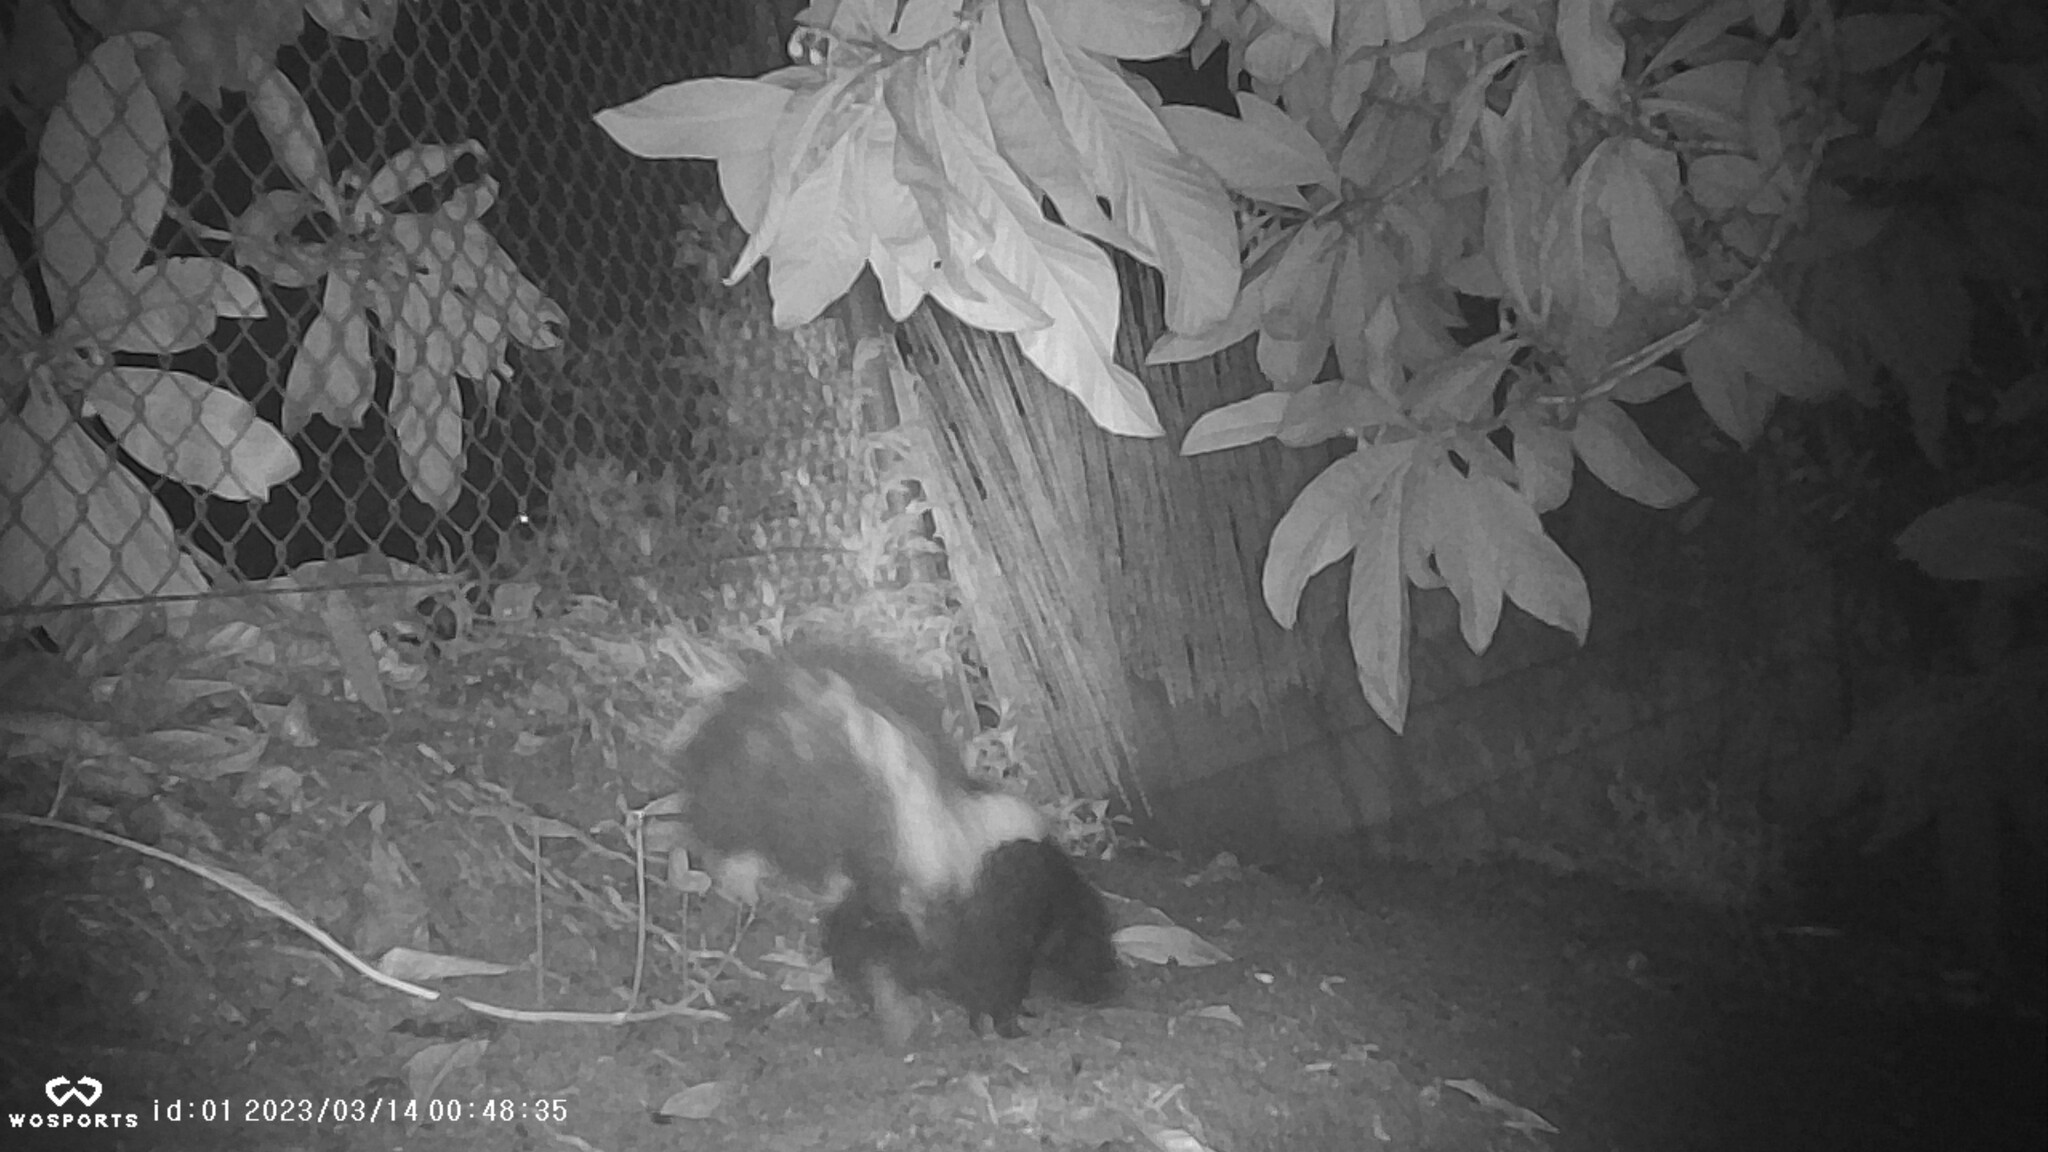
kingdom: Animalia
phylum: Chordata
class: Mammalia
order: Carnivora
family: Mephitidae
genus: Mephitis
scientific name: Mephitis mephitis
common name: Striped skunk
